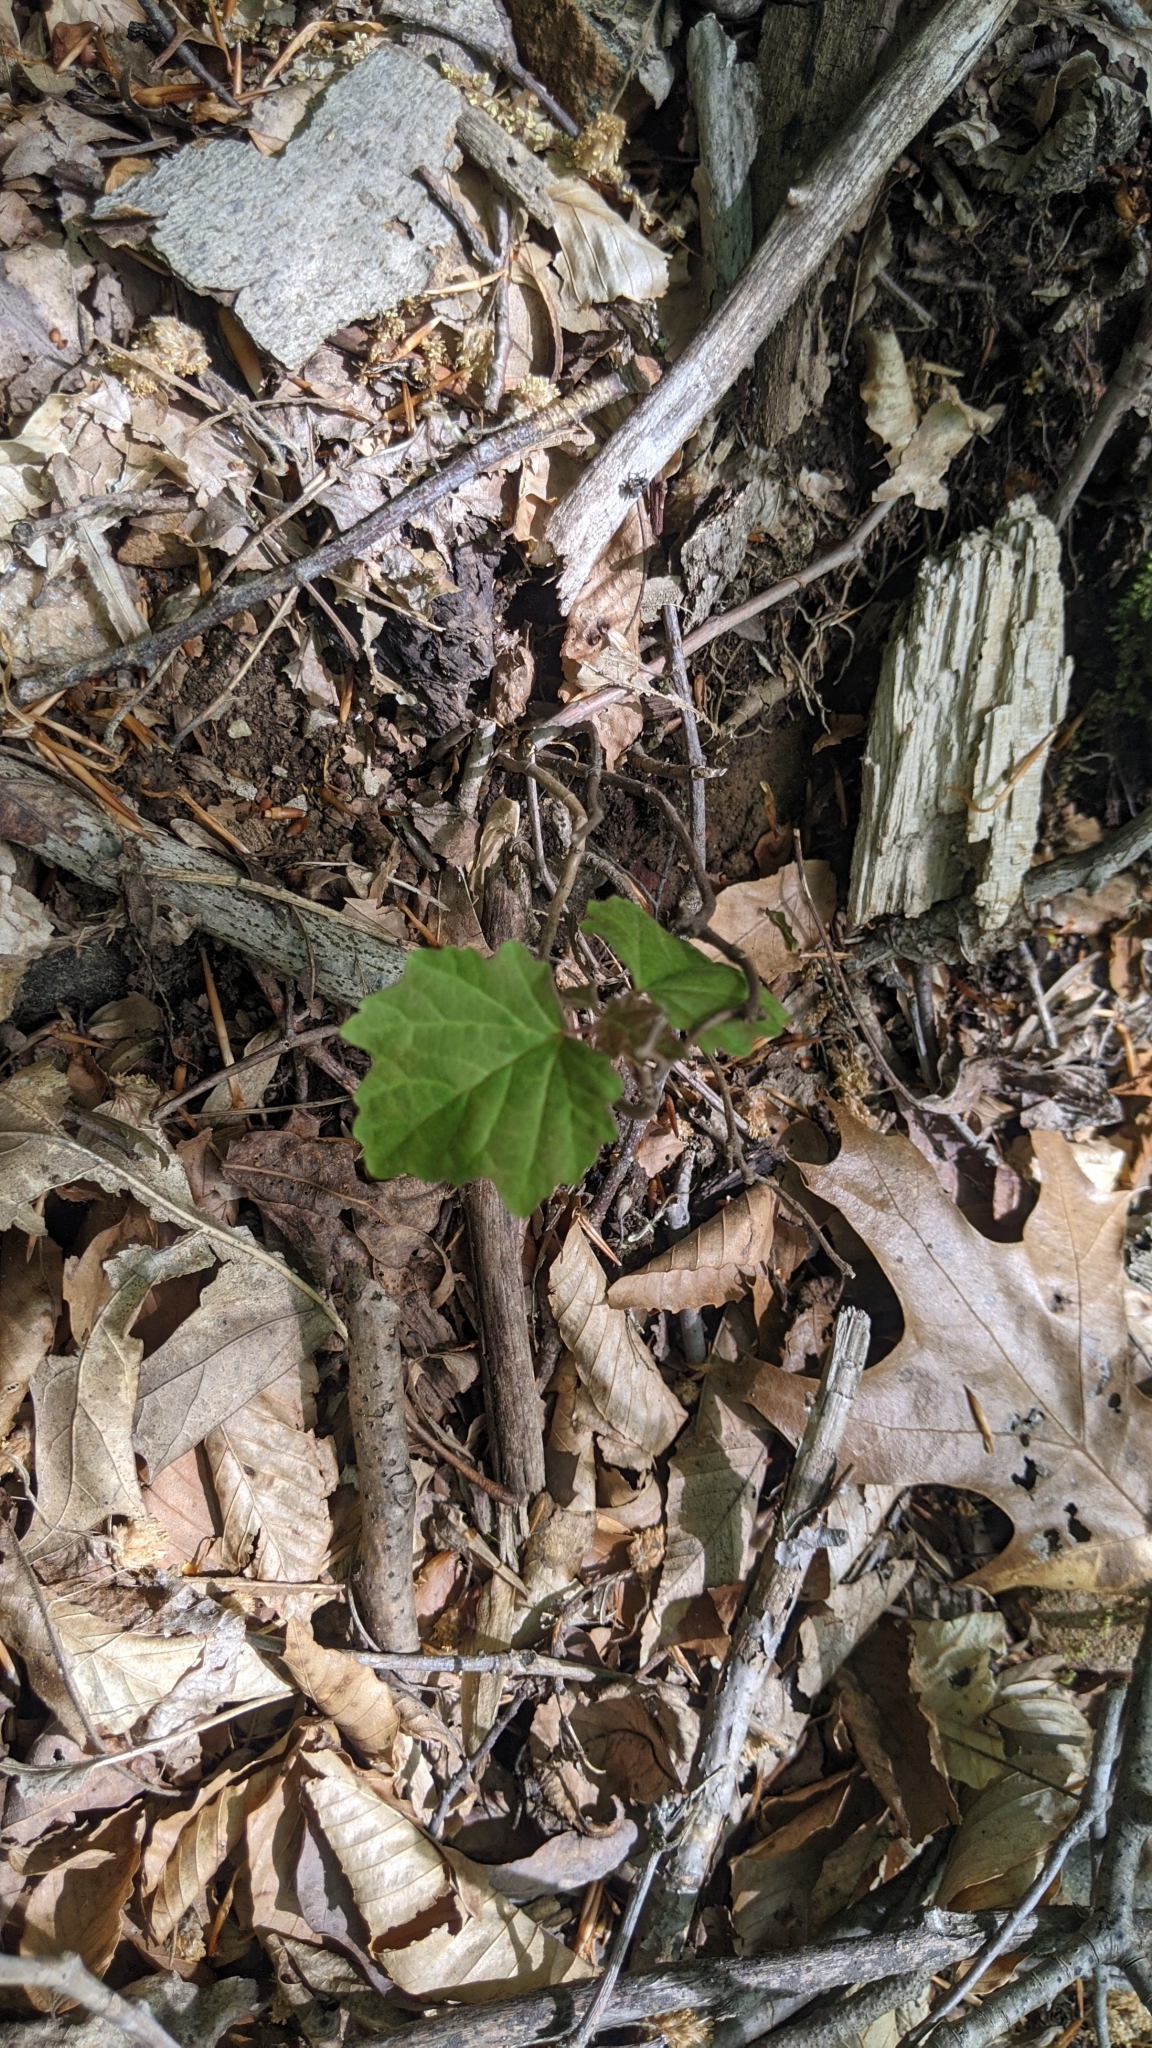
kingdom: Plantae
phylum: Tracheophyta
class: Magnoliopsida
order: Dipsacales
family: Viburnaceae
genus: Viburnum
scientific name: Viburnum acerifolium
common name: Dockmackie
